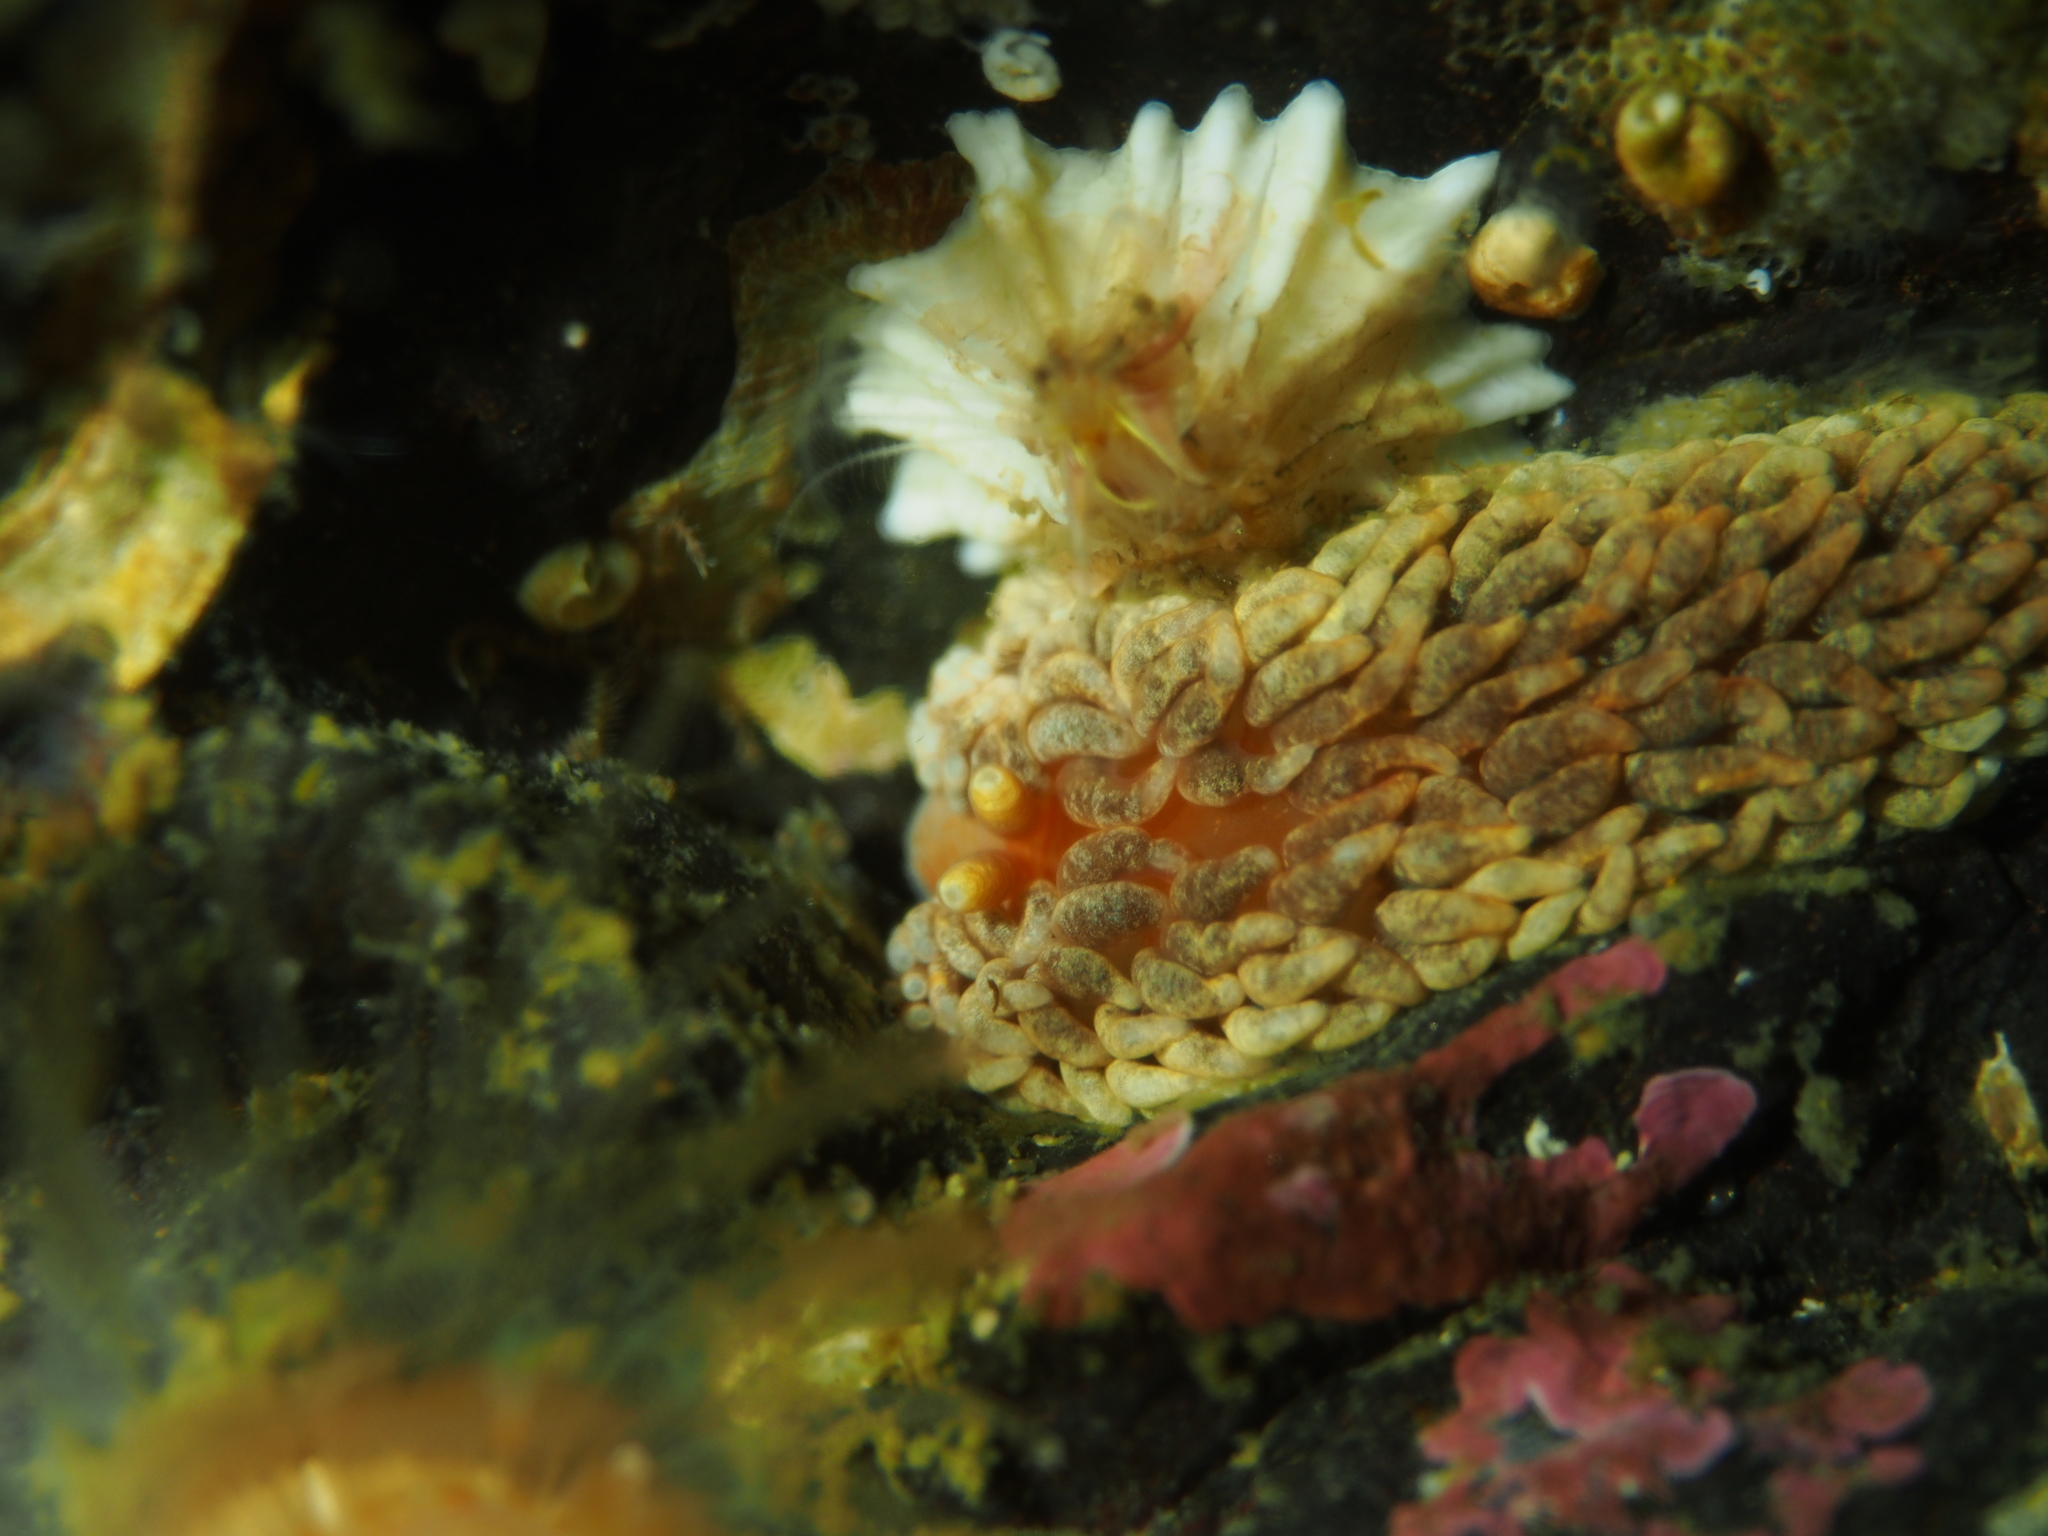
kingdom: Animalia
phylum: Mollusca
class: Gastropoda
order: Nudibranchia
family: Aeolidiidae
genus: Aeolidiella
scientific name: Aeolidiella glauca
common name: Orange-brown aeolid
